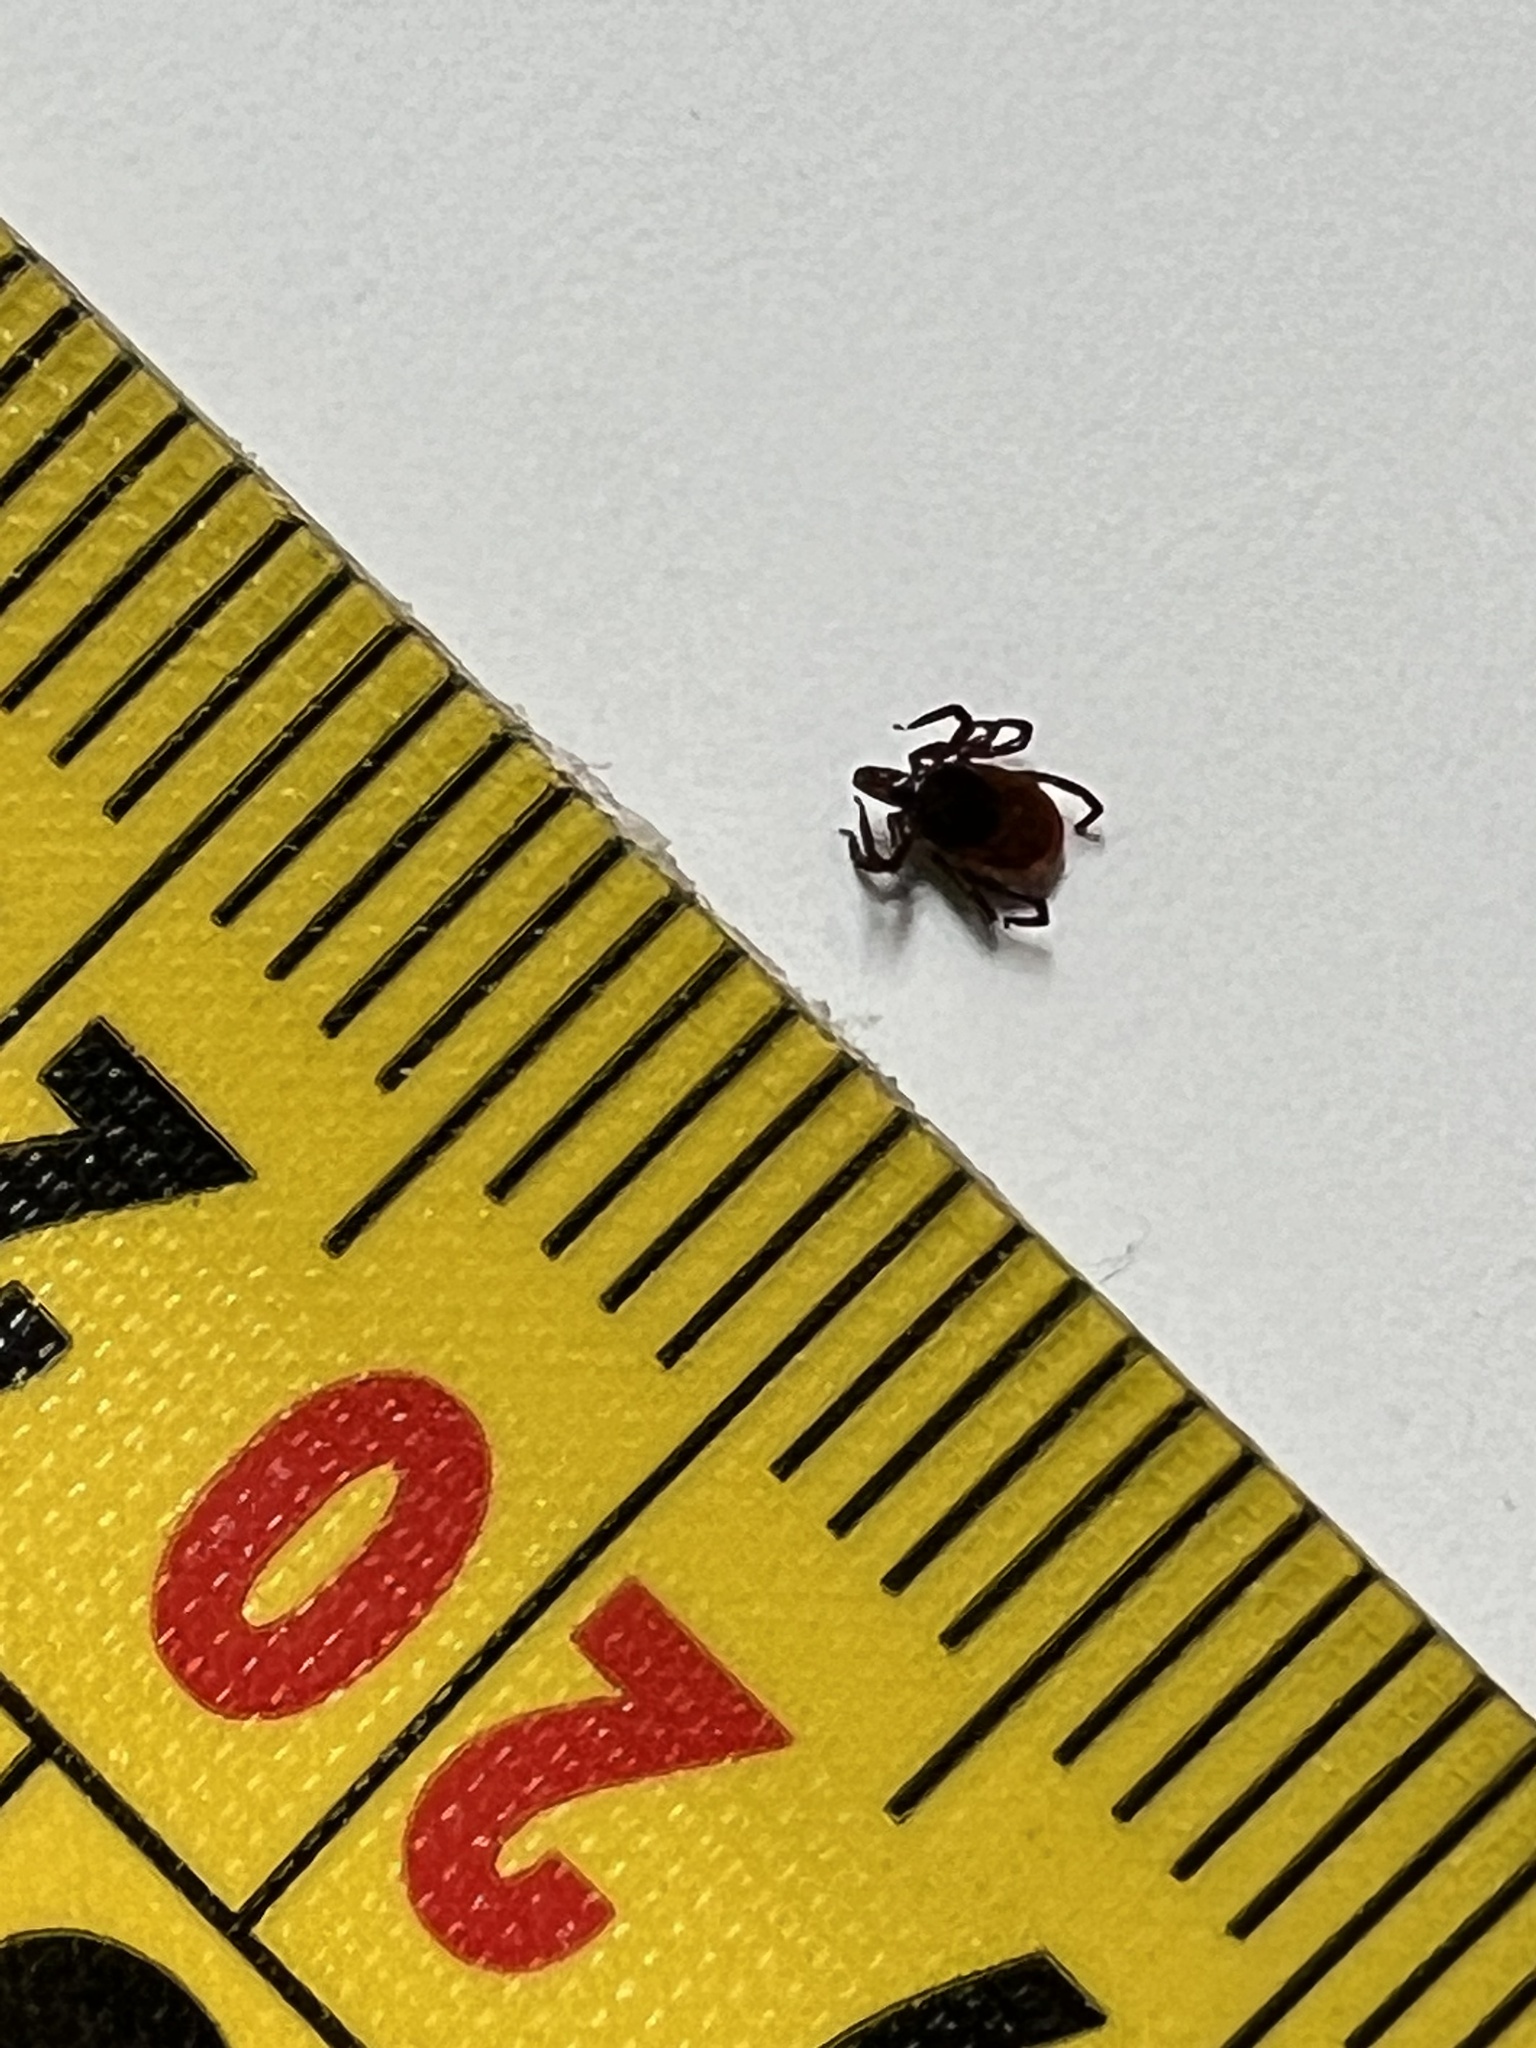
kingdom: Animalia
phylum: Arthropoda
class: Arachnida
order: Ixodida
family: Ixodidae
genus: Ixodes
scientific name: Ixodes scapularis
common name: Black legged tick
